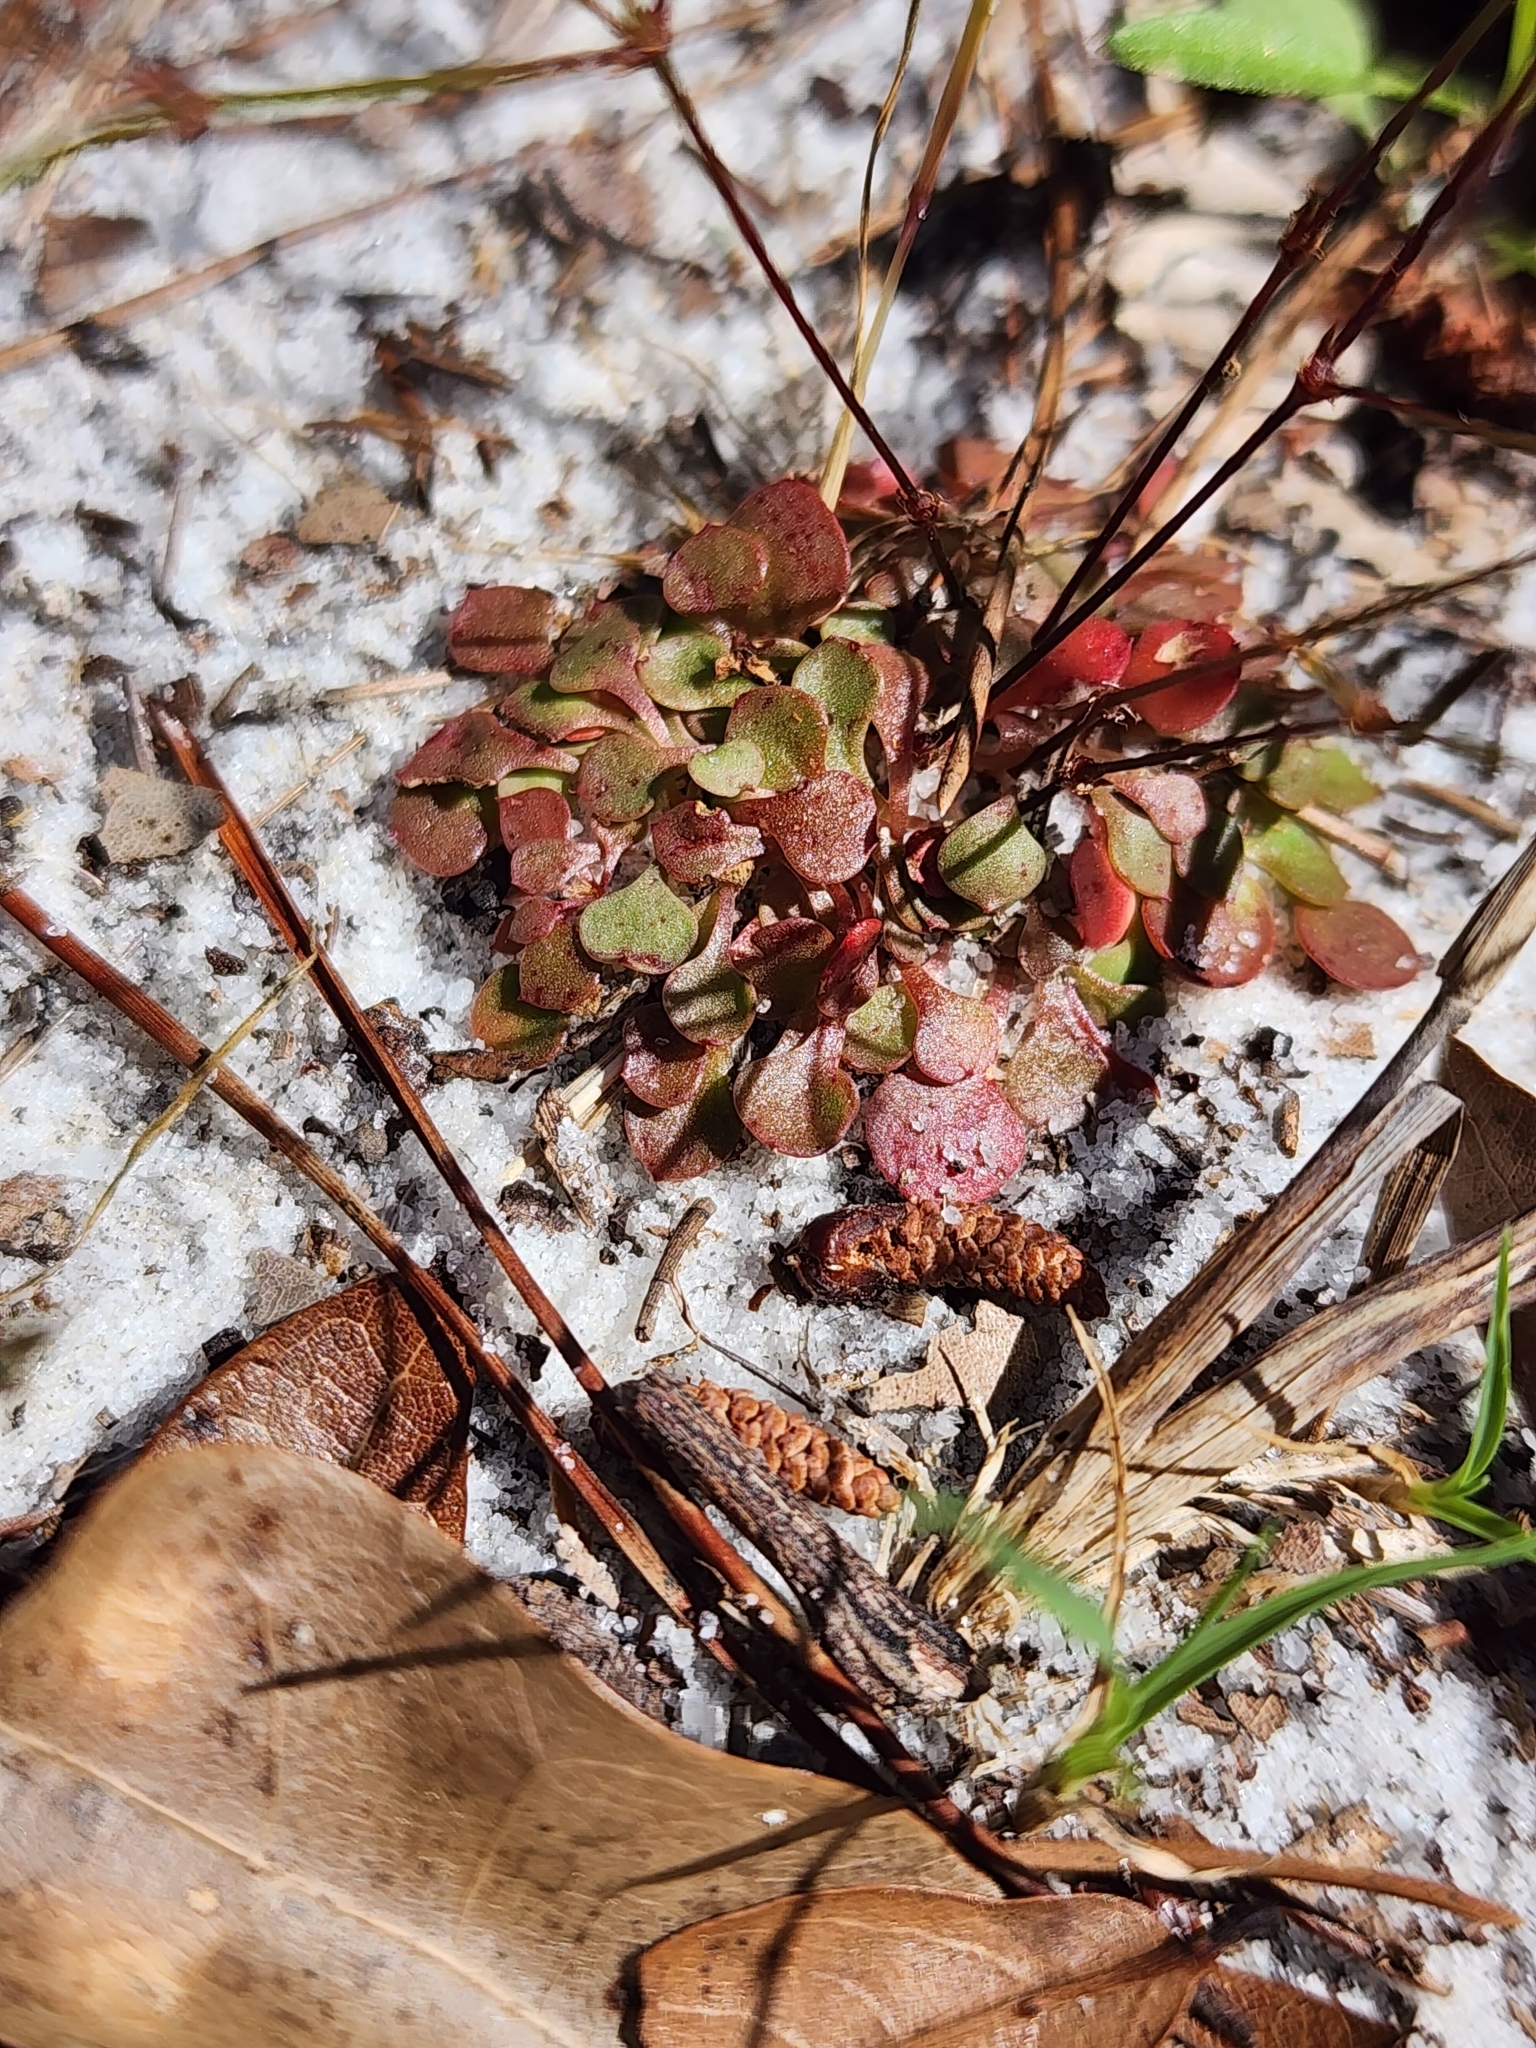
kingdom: Plantae
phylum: Tracheophyta
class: Magnoliopsida
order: Caryophyllales
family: Caryophyllaceae
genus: Stipulicida
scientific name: Stipulicida setacea
